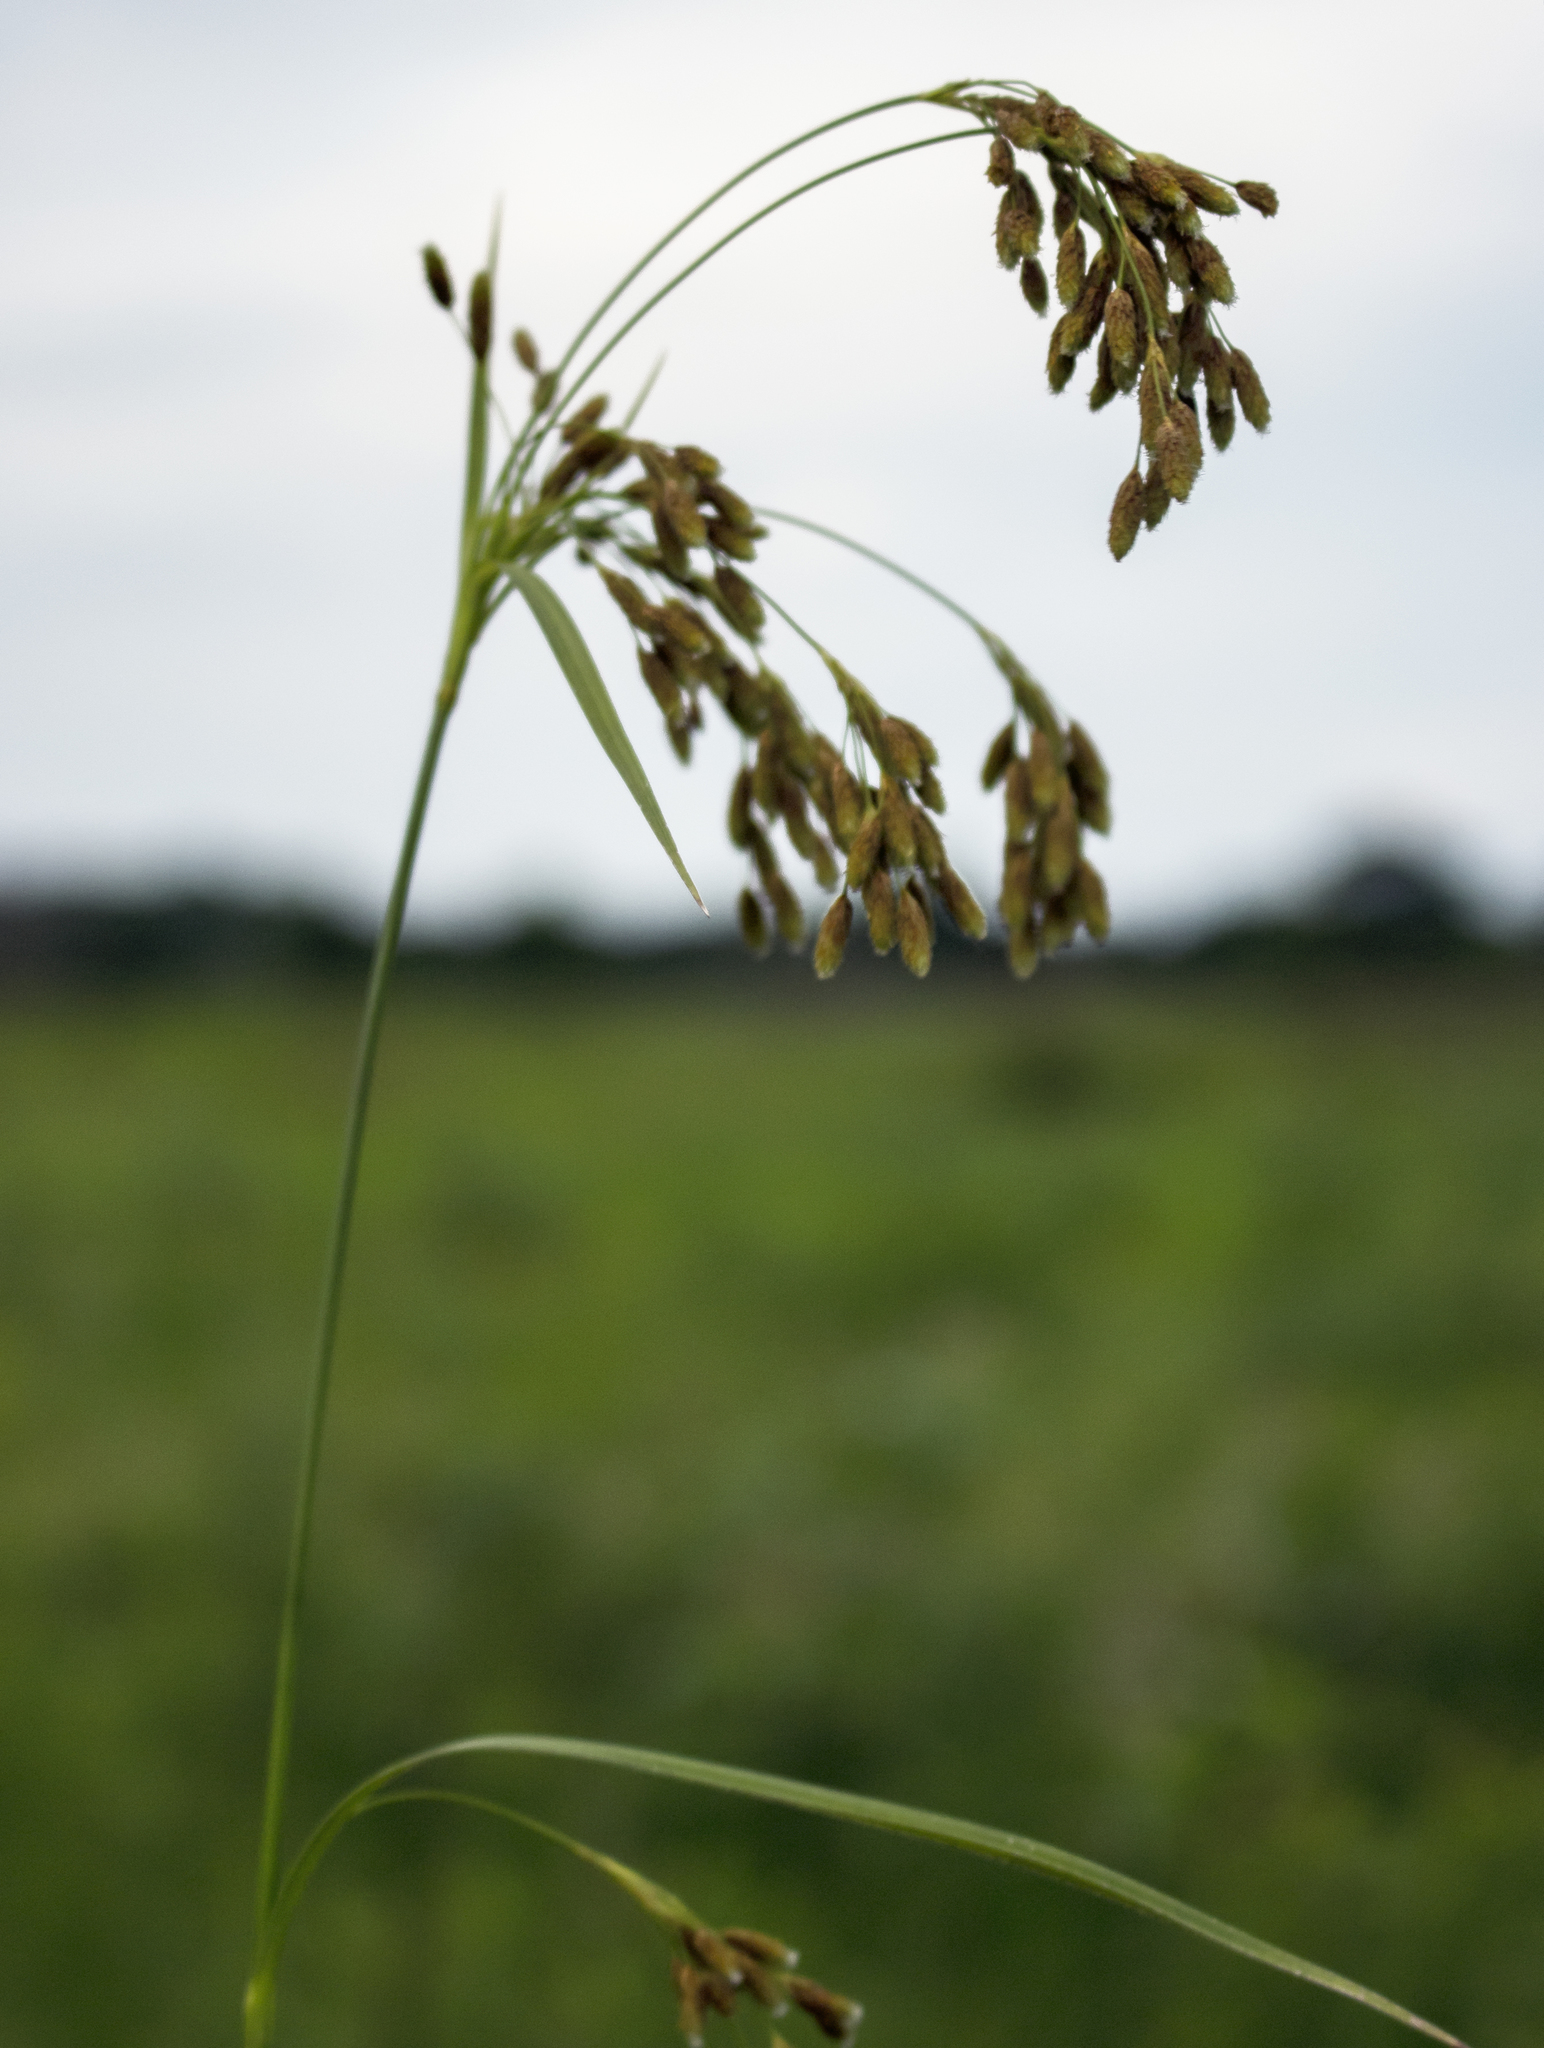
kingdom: Plantae
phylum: Tracheophyta
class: Liliopsida
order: Poales
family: Cyperaceae
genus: Scirpus
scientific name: Scirpus pendulus
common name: Nodding bulrush
